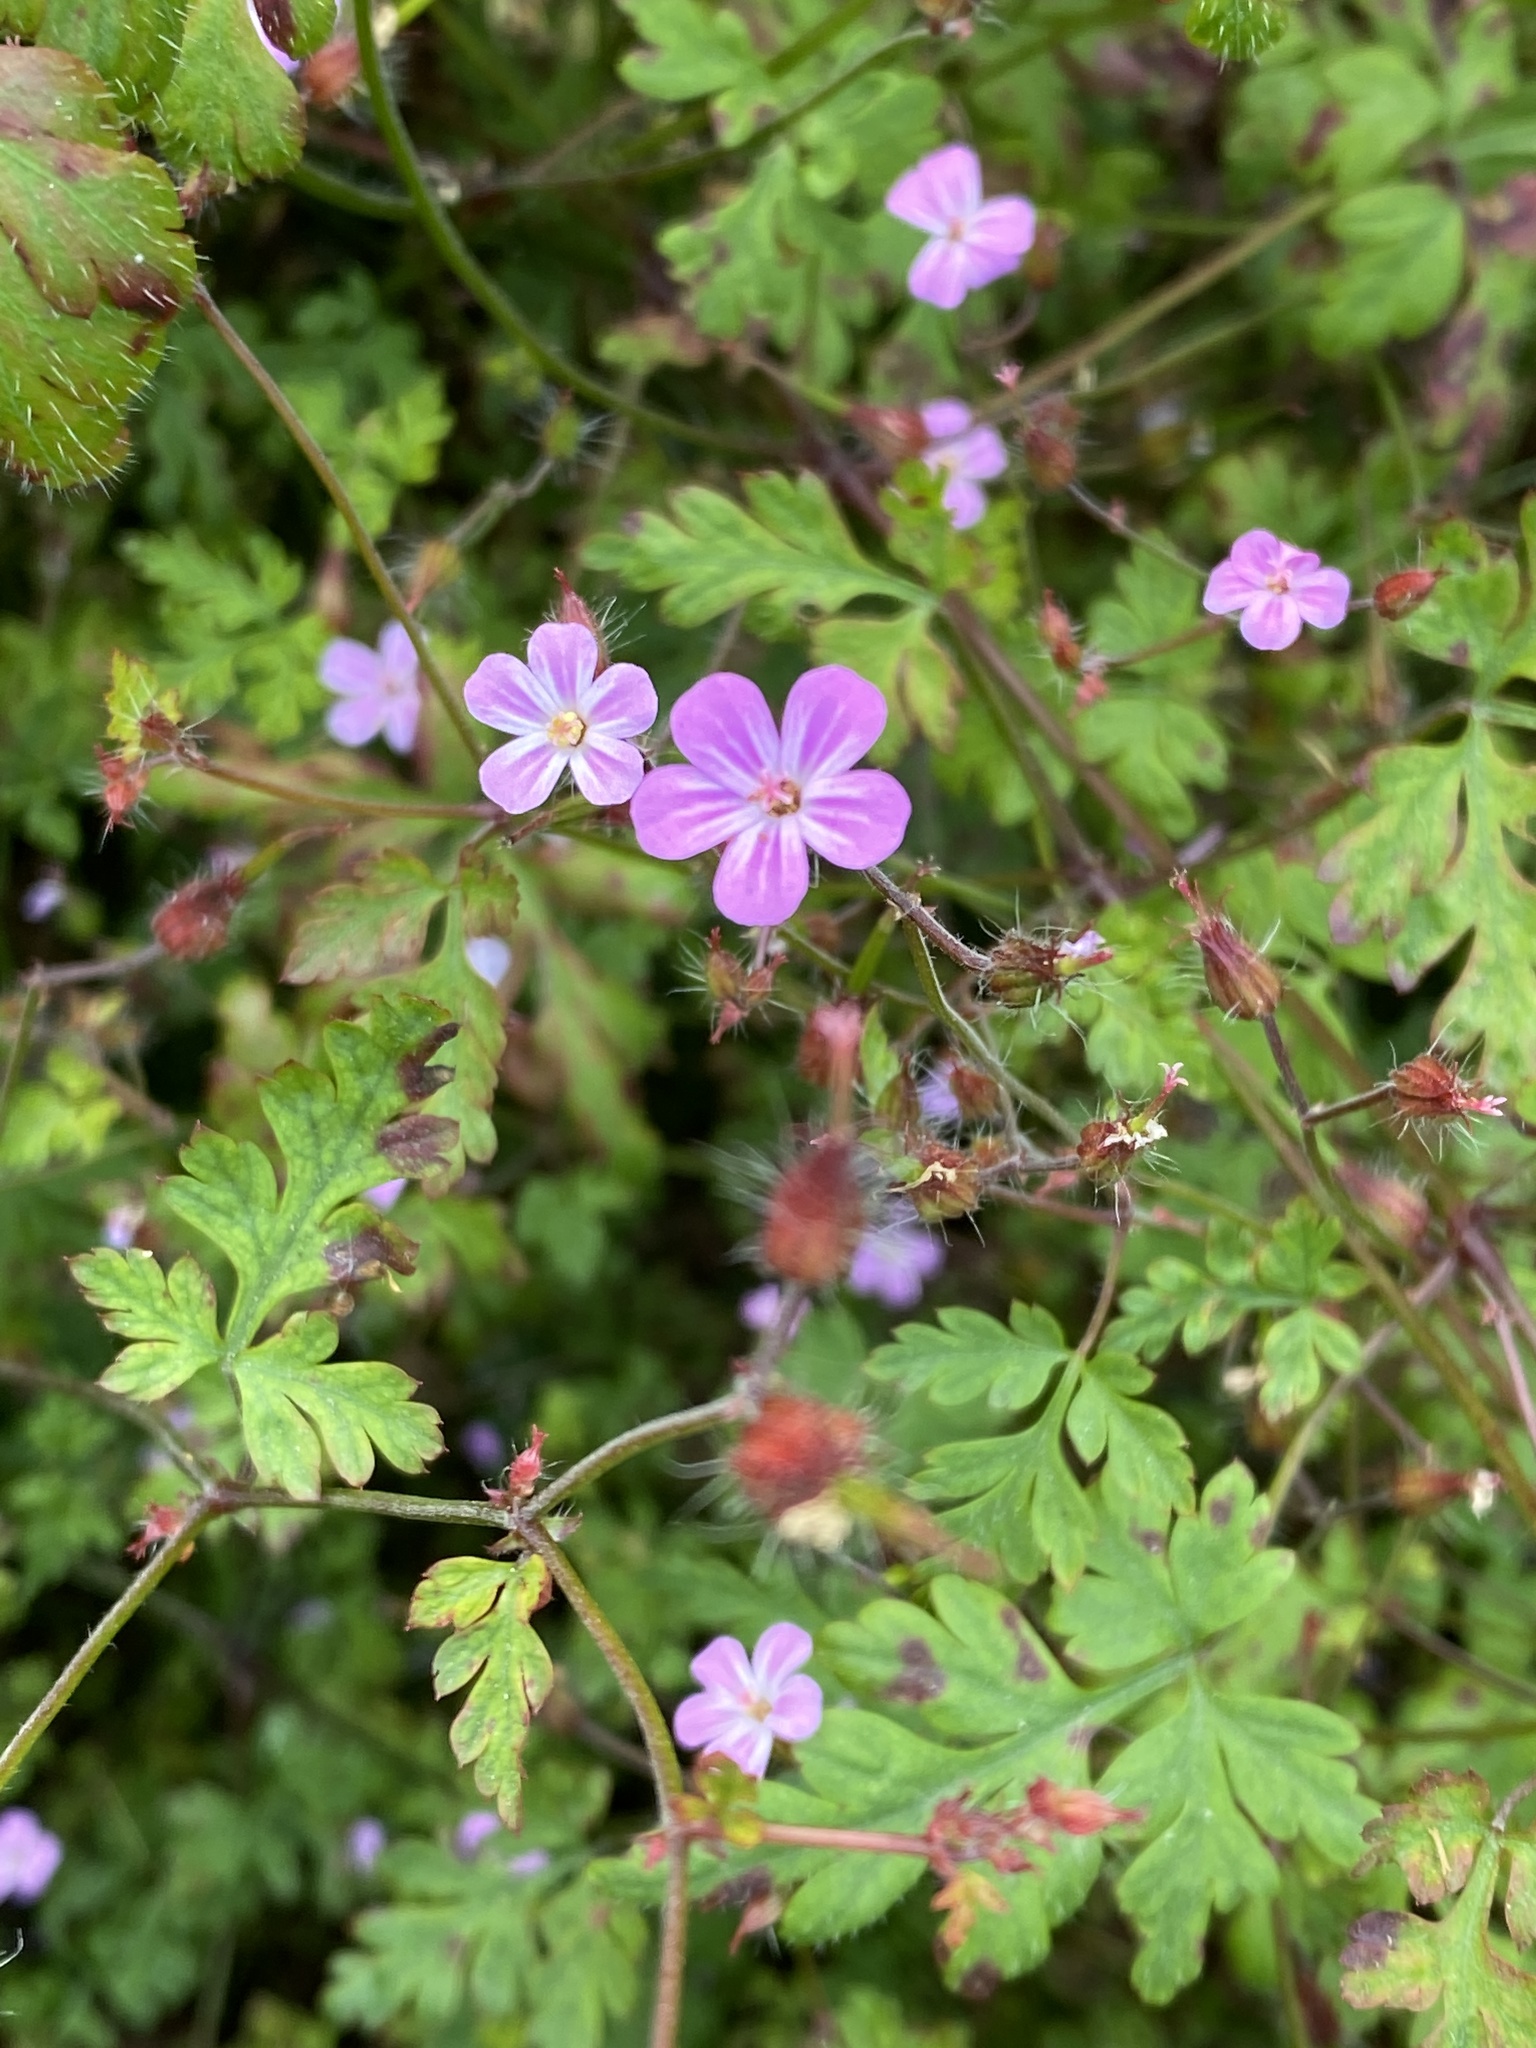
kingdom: Plantae
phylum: Tracheophyta
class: Magnoliopsida
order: Geraniales
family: Geraniaceae
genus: Geranium
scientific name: Geranium robertianum
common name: Herb-robert
